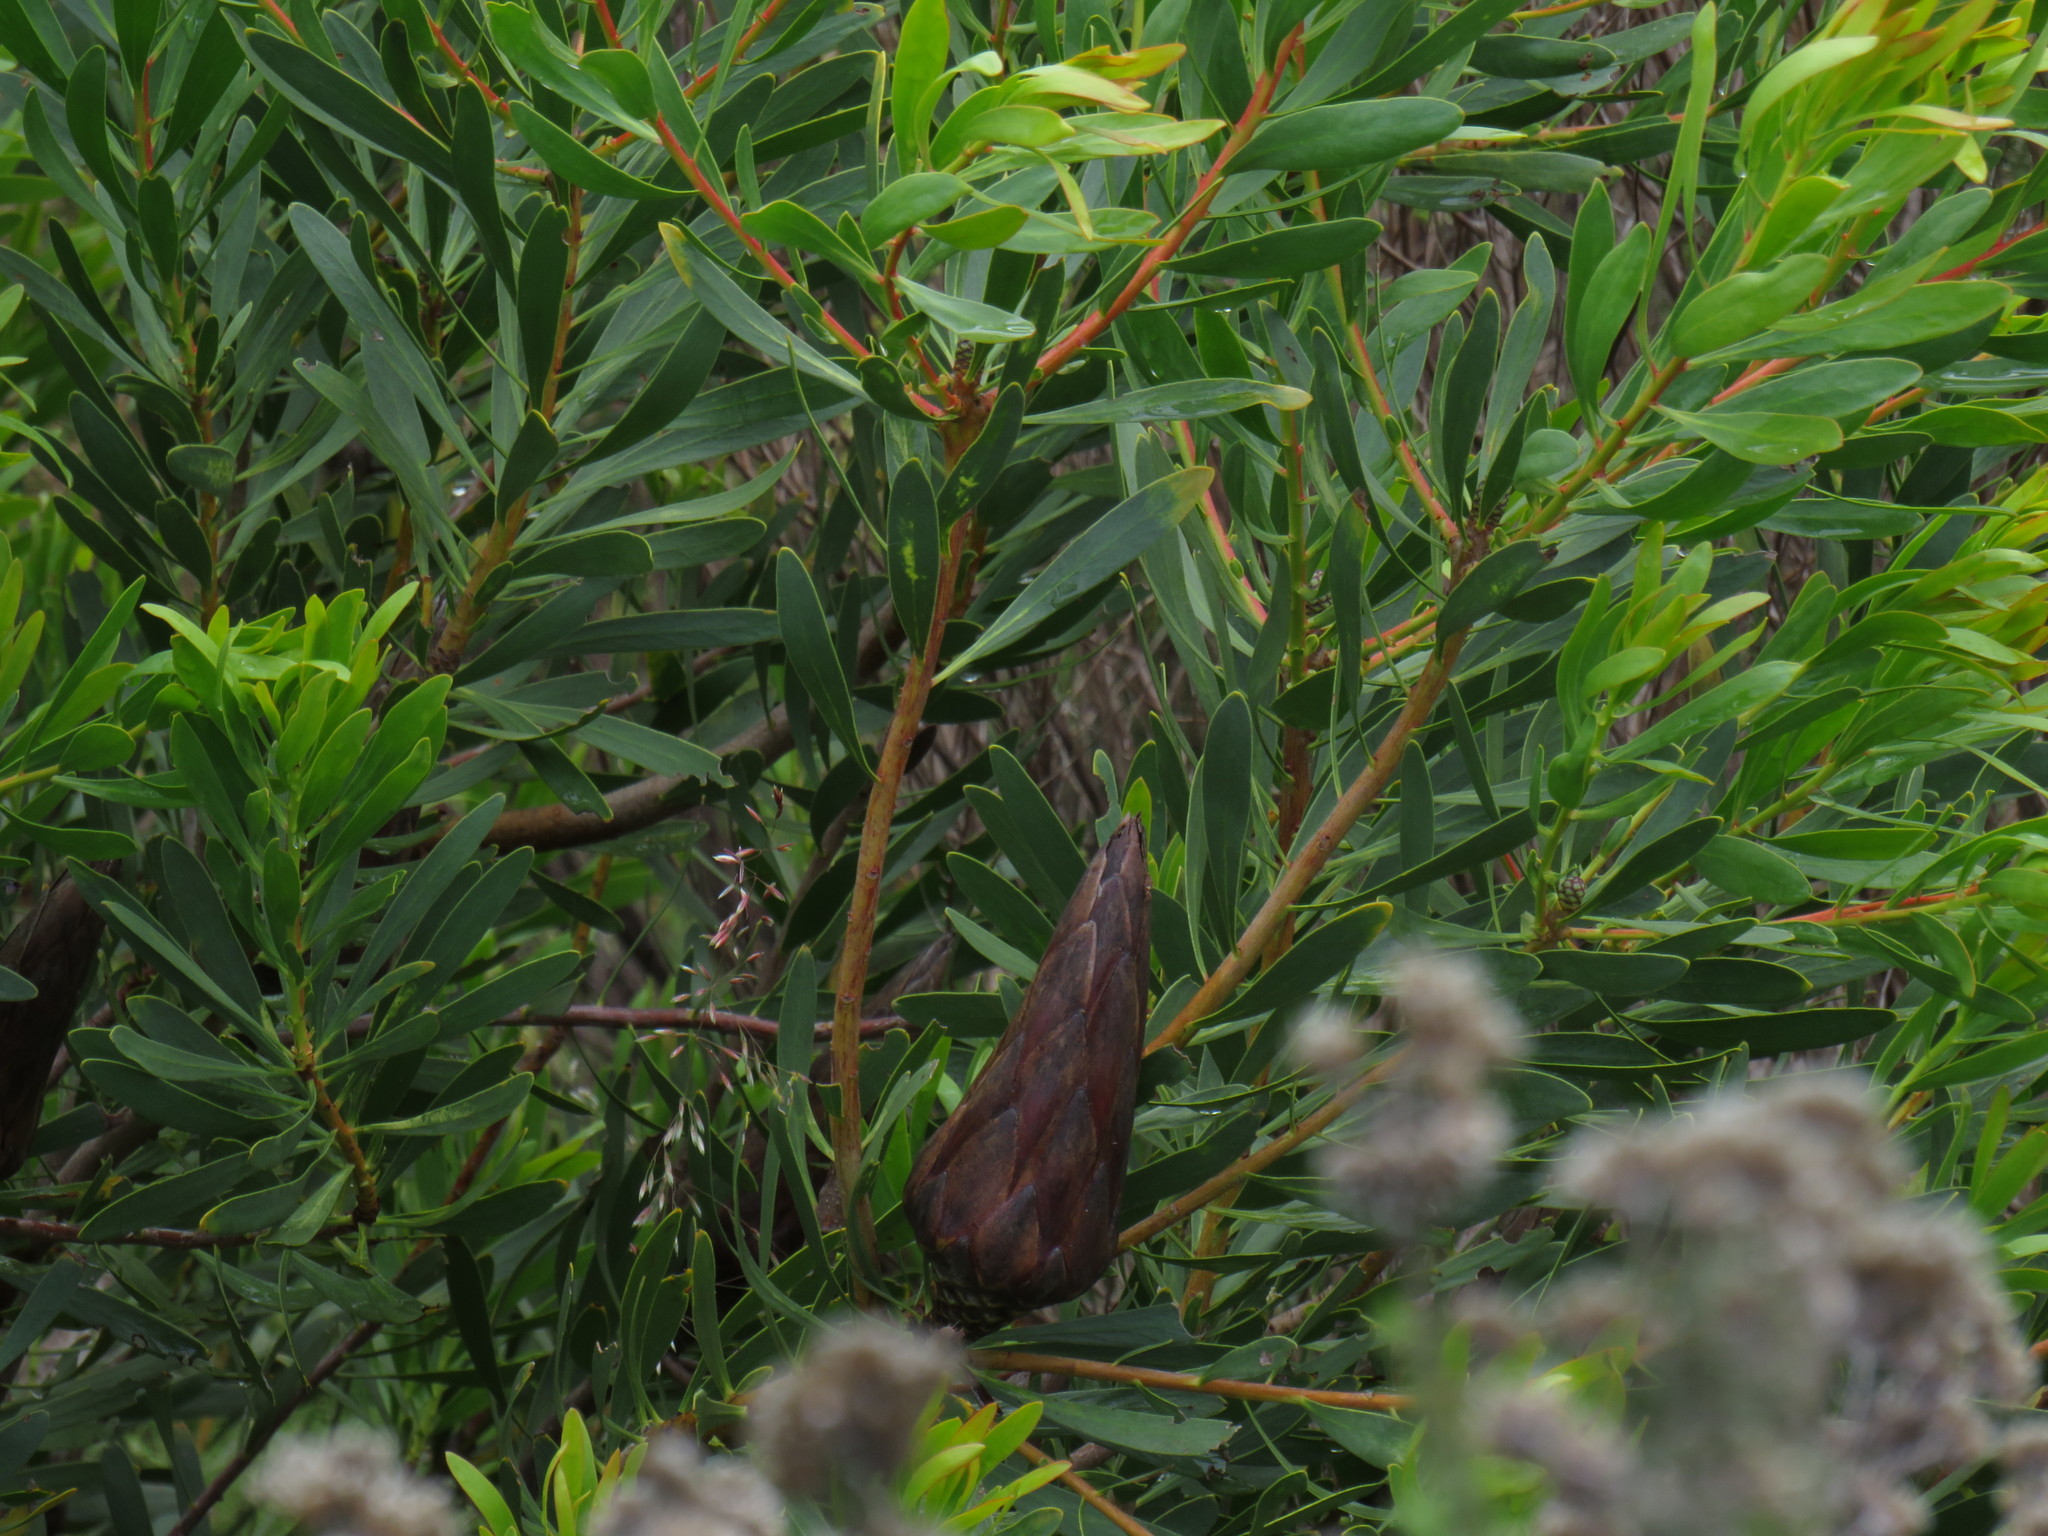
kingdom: Plantae
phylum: Tracheophyta
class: Magnoliopsida
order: Proteales
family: Proteaceae
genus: Protea
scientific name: Protea repens
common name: Sugarbush
